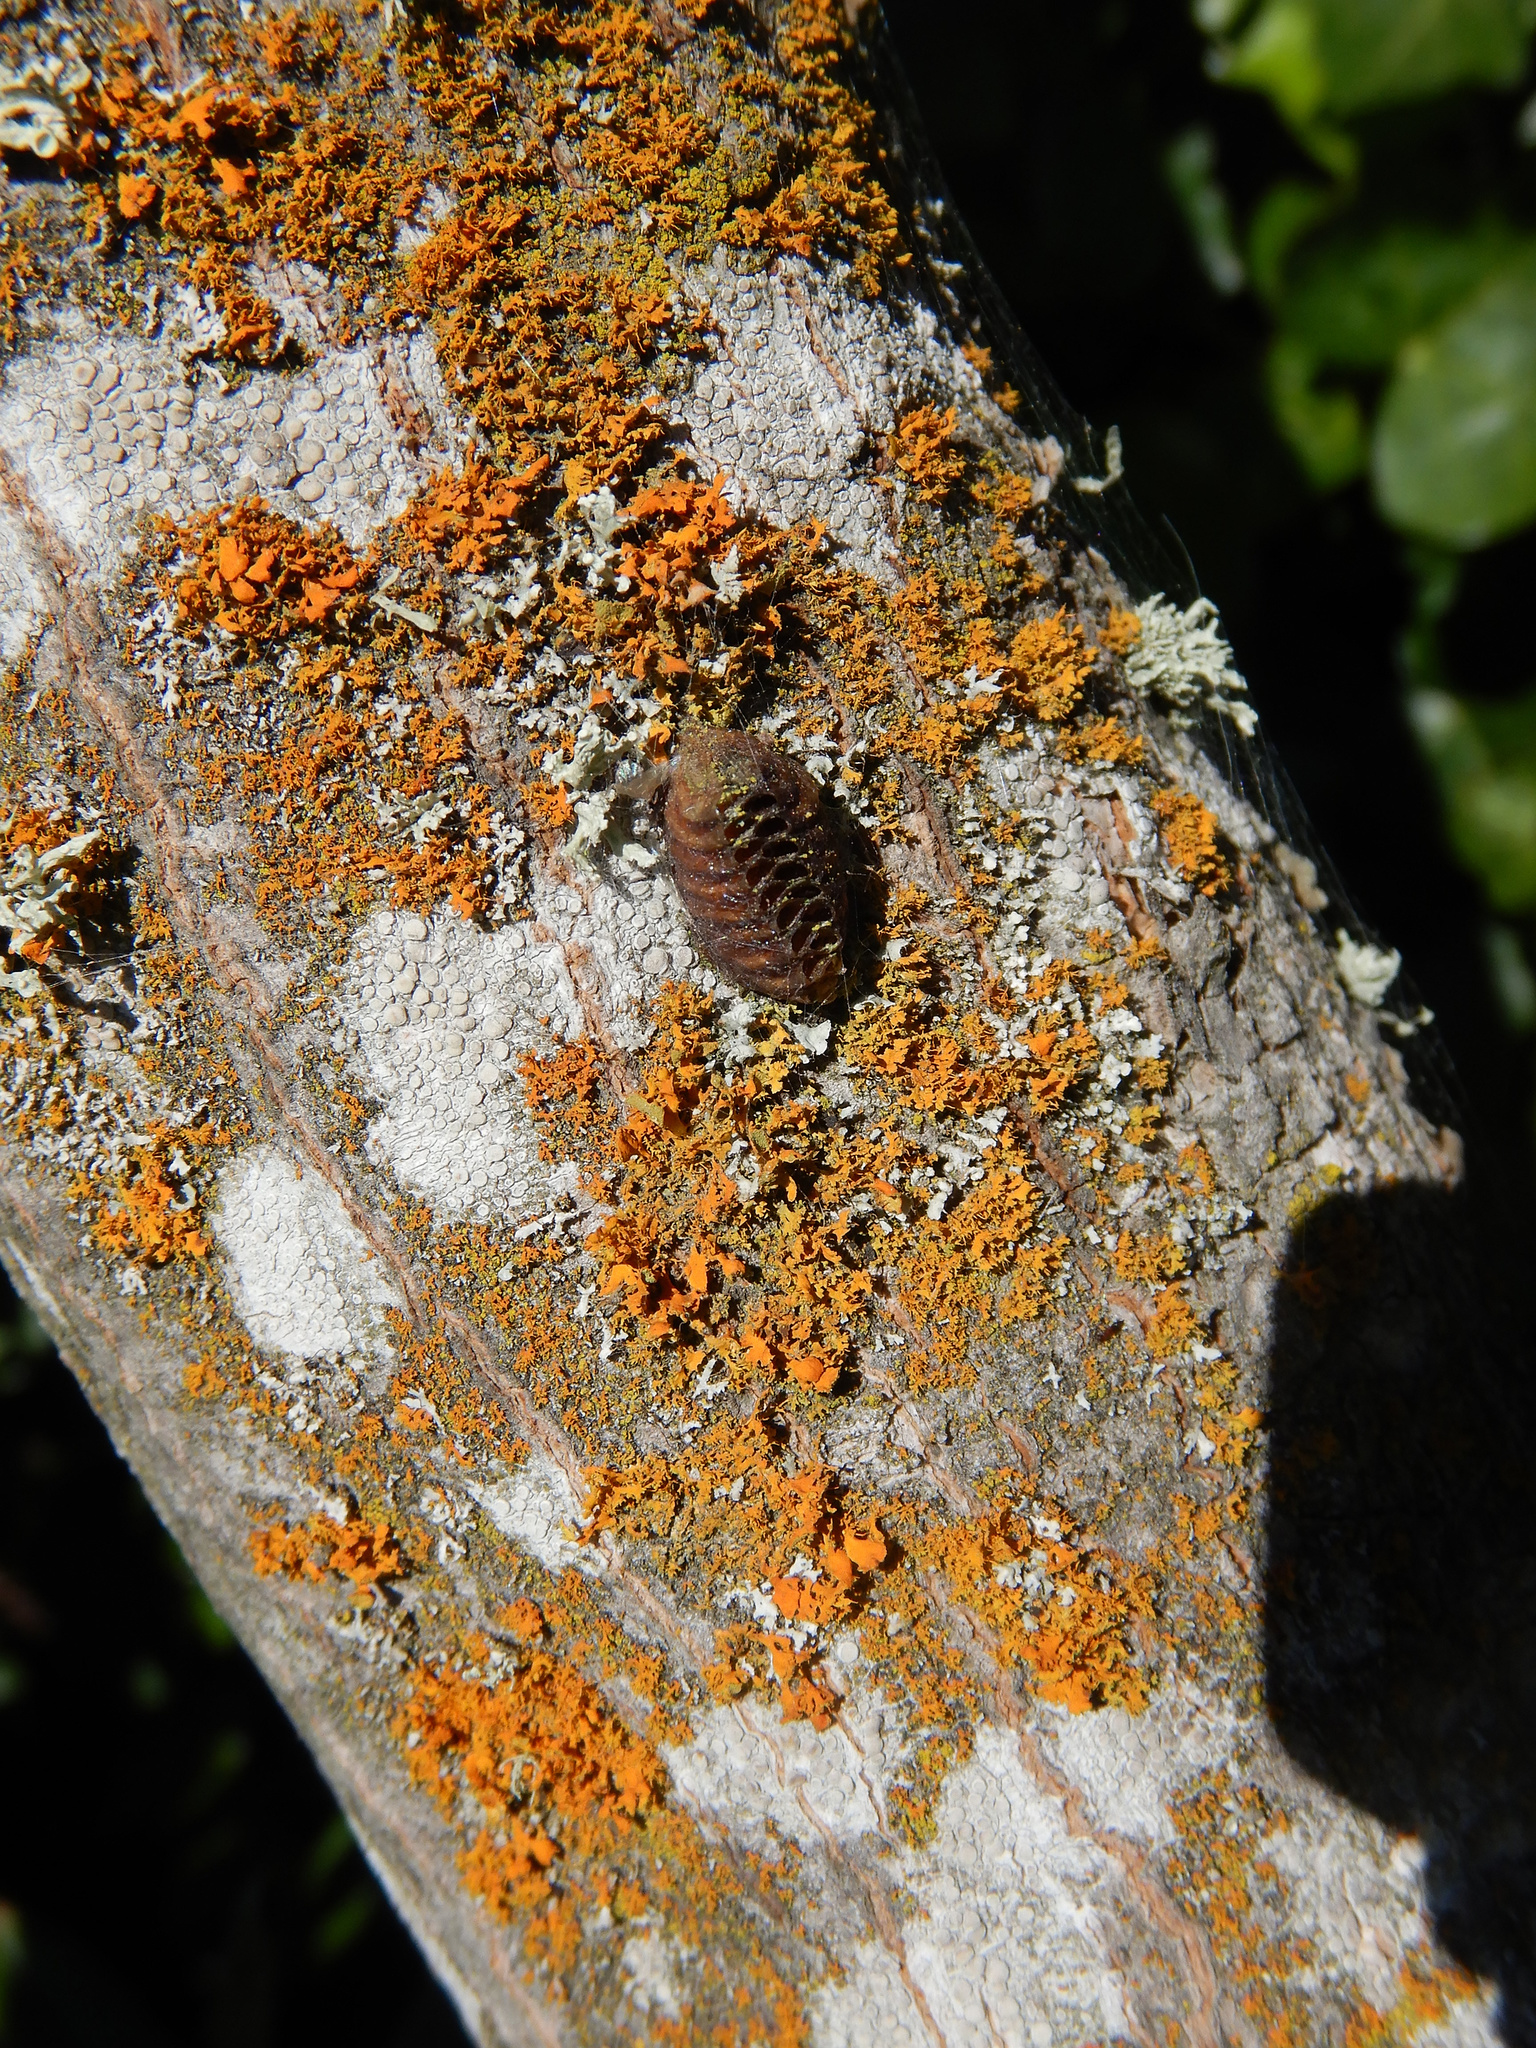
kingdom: Animalia
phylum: Arthropoda
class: Insecta
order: Mantodea
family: Mantidae
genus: Orthodera
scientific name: Orthodera novaezealandiae
